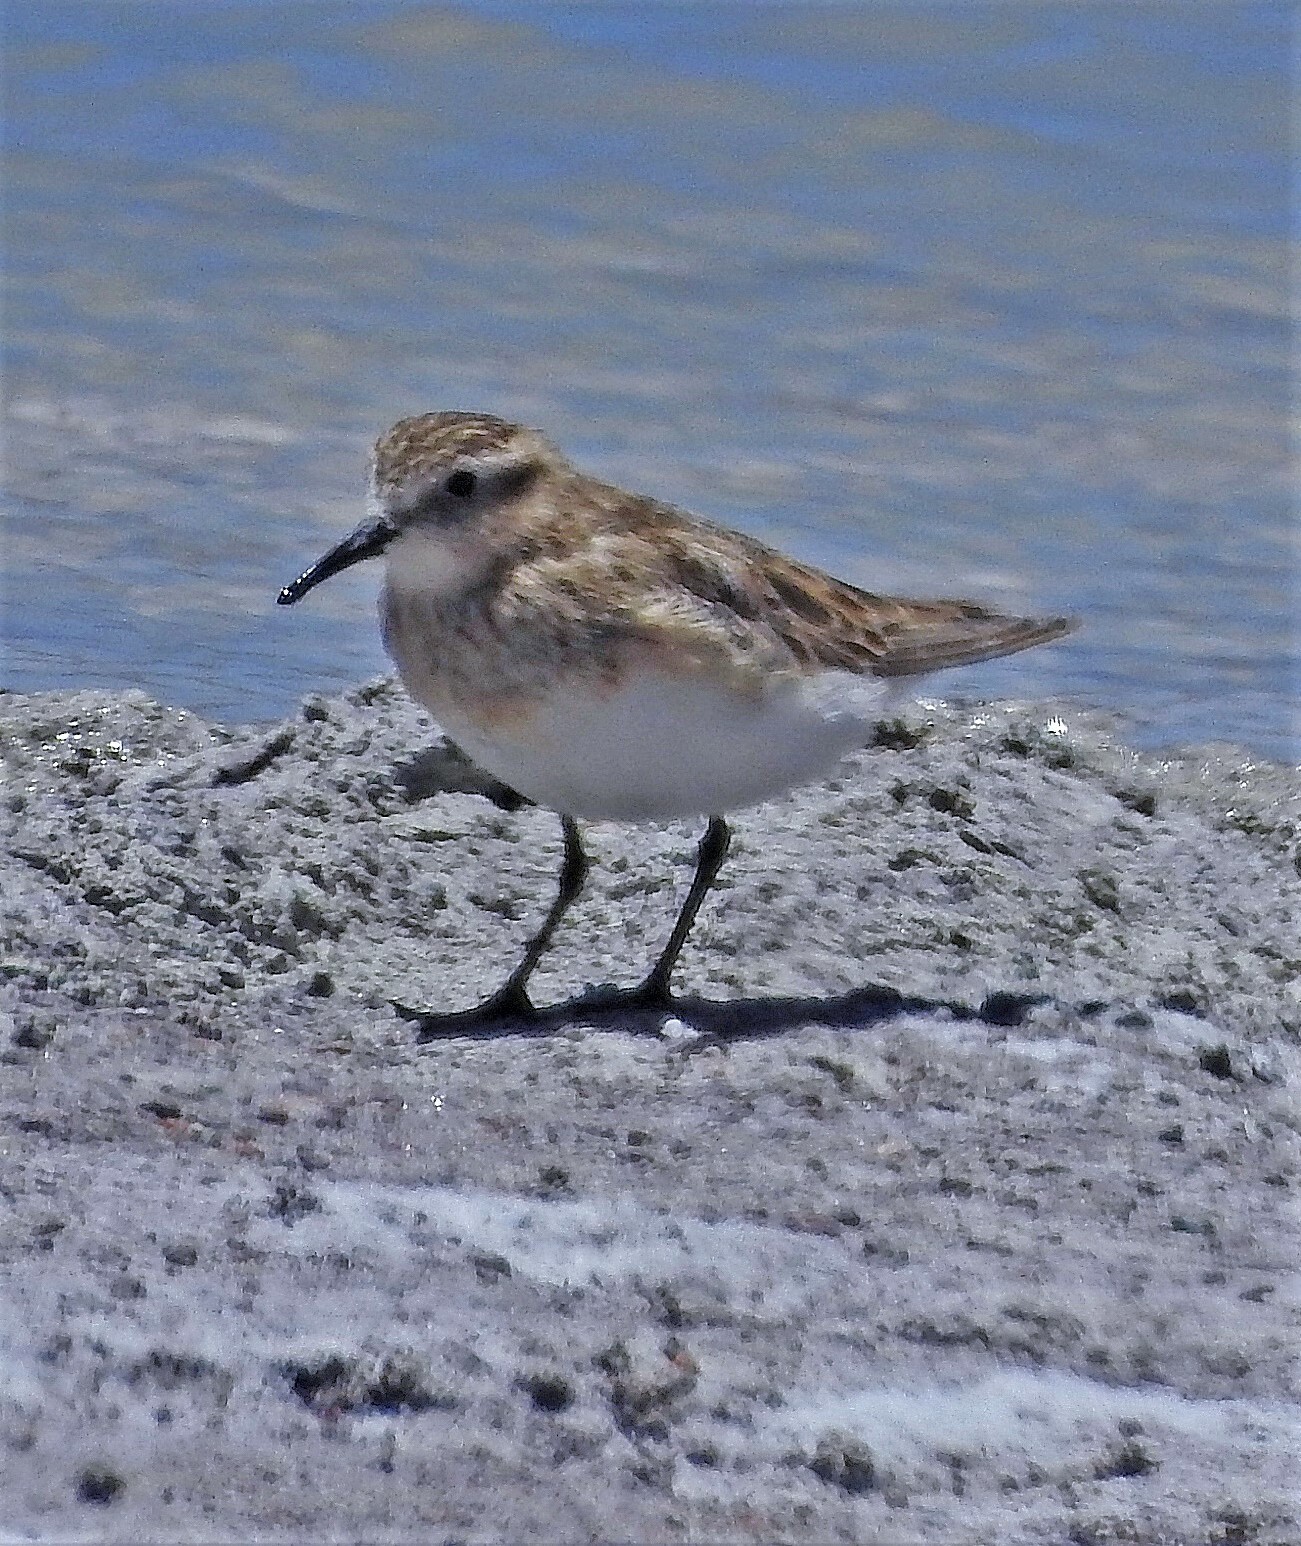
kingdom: Animalia
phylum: Chordata
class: Aves
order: Charadriiformes
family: Scolopacidae
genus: Calidris
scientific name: Calidris bairdii
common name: Baird's sandpiper
